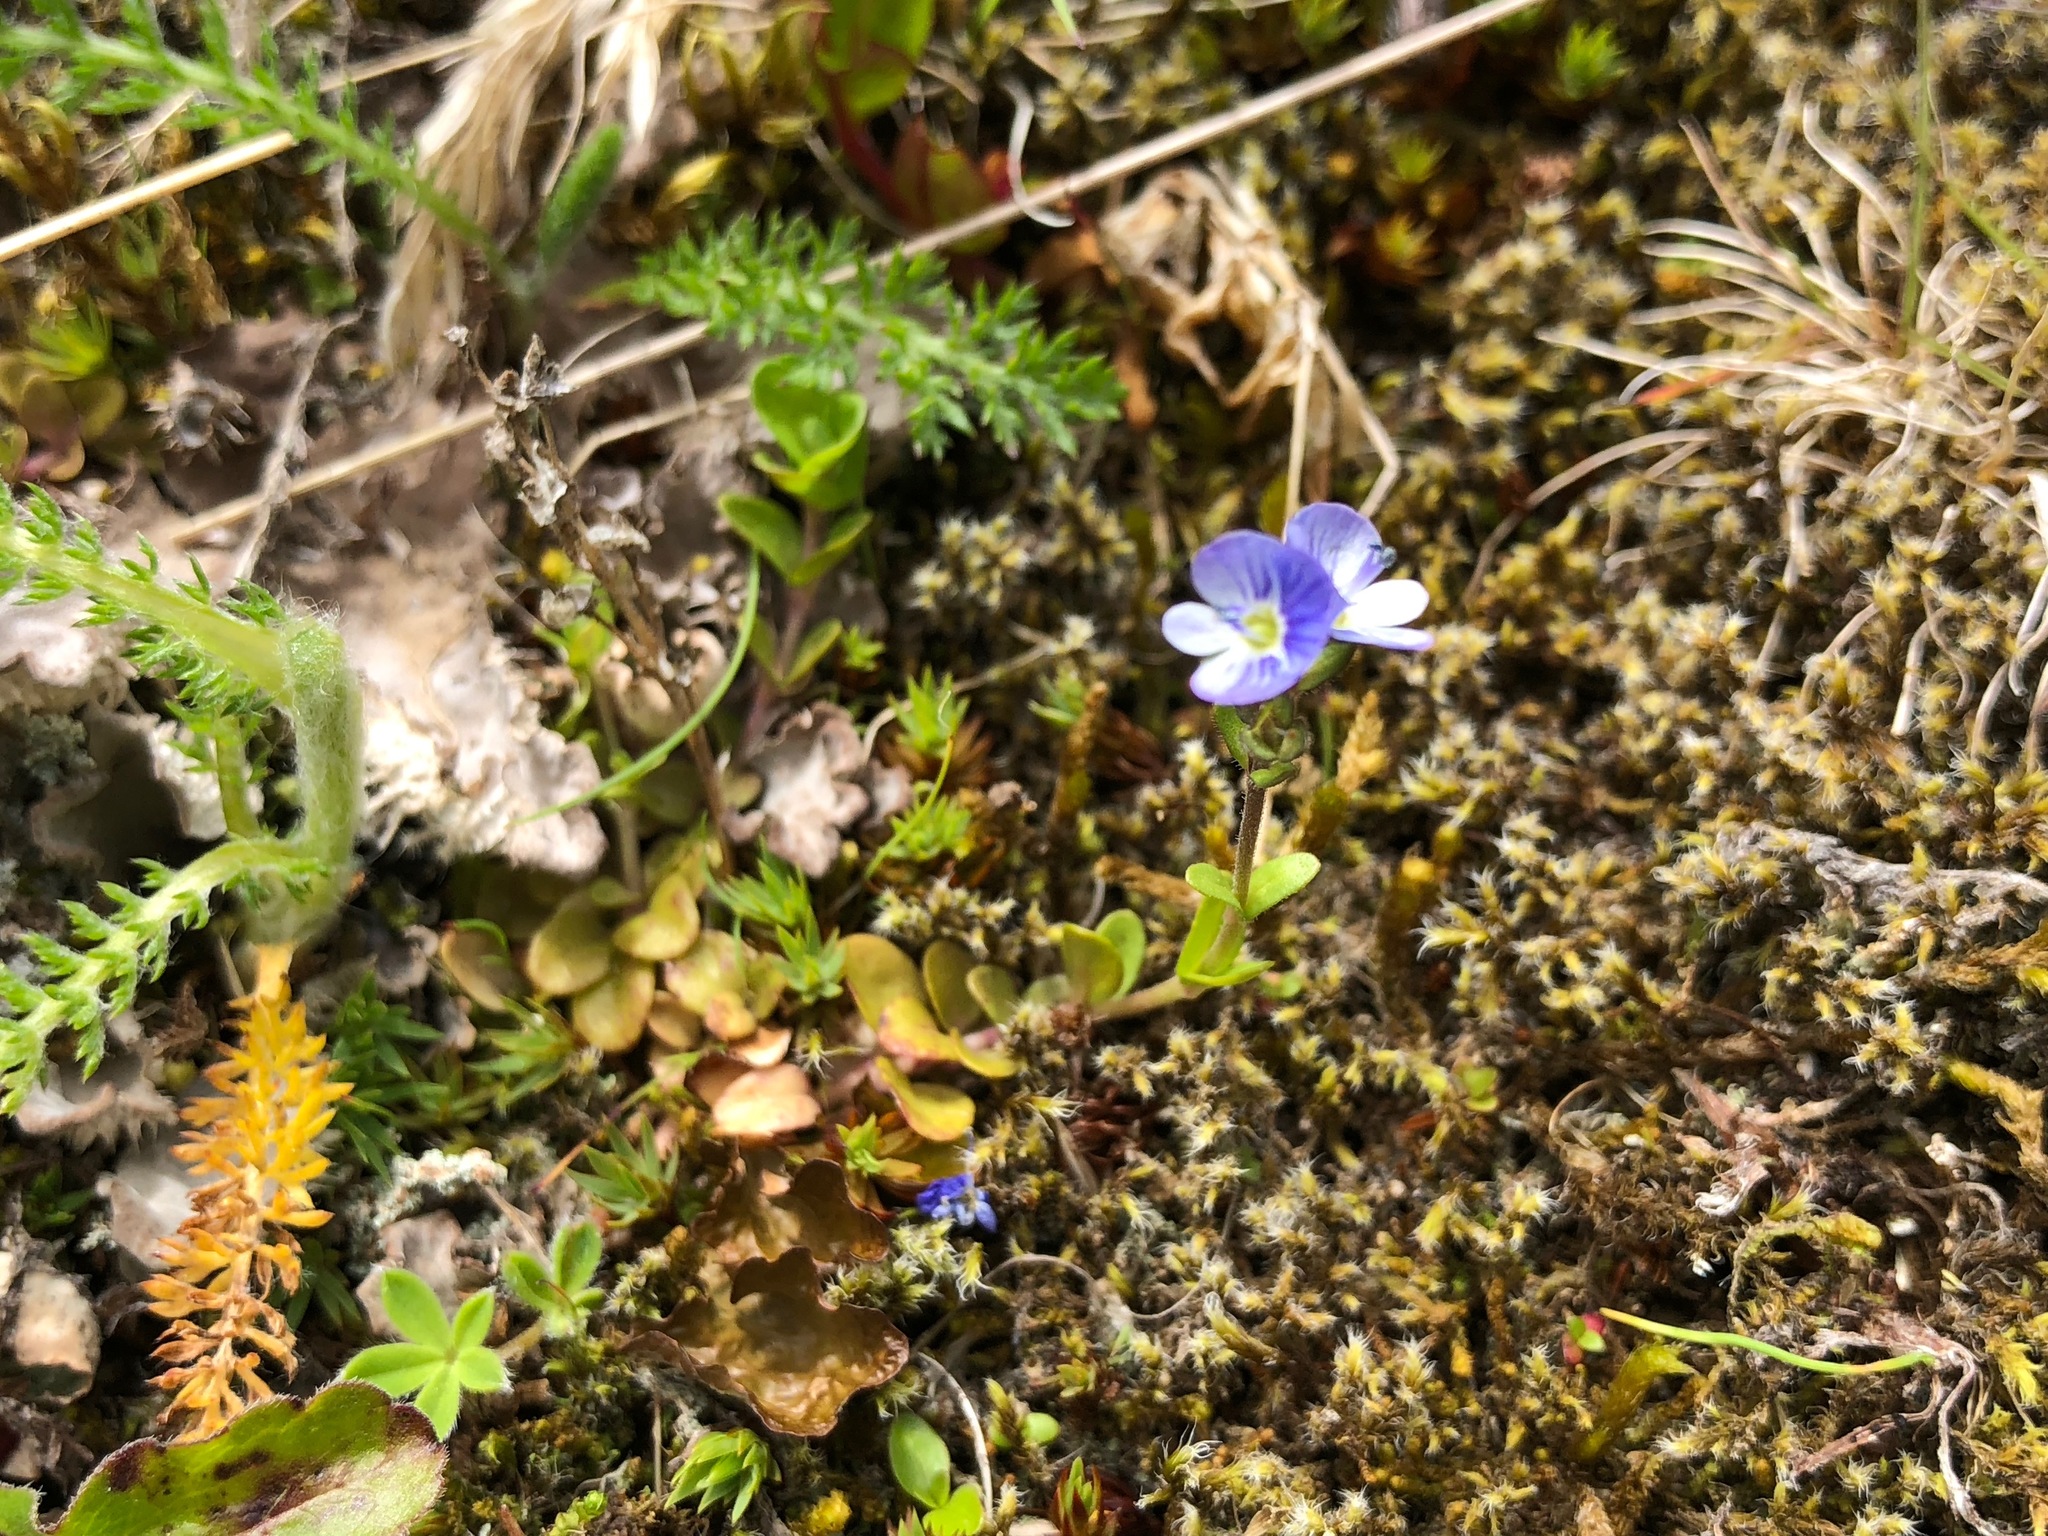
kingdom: Plantae
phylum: Tracheophyta
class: Magnoliopsida
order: Lamiales
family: Plantaginaceae
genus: Veronica
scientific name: Veronica serpyllifolia
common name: Thyme-leaved speedwell
